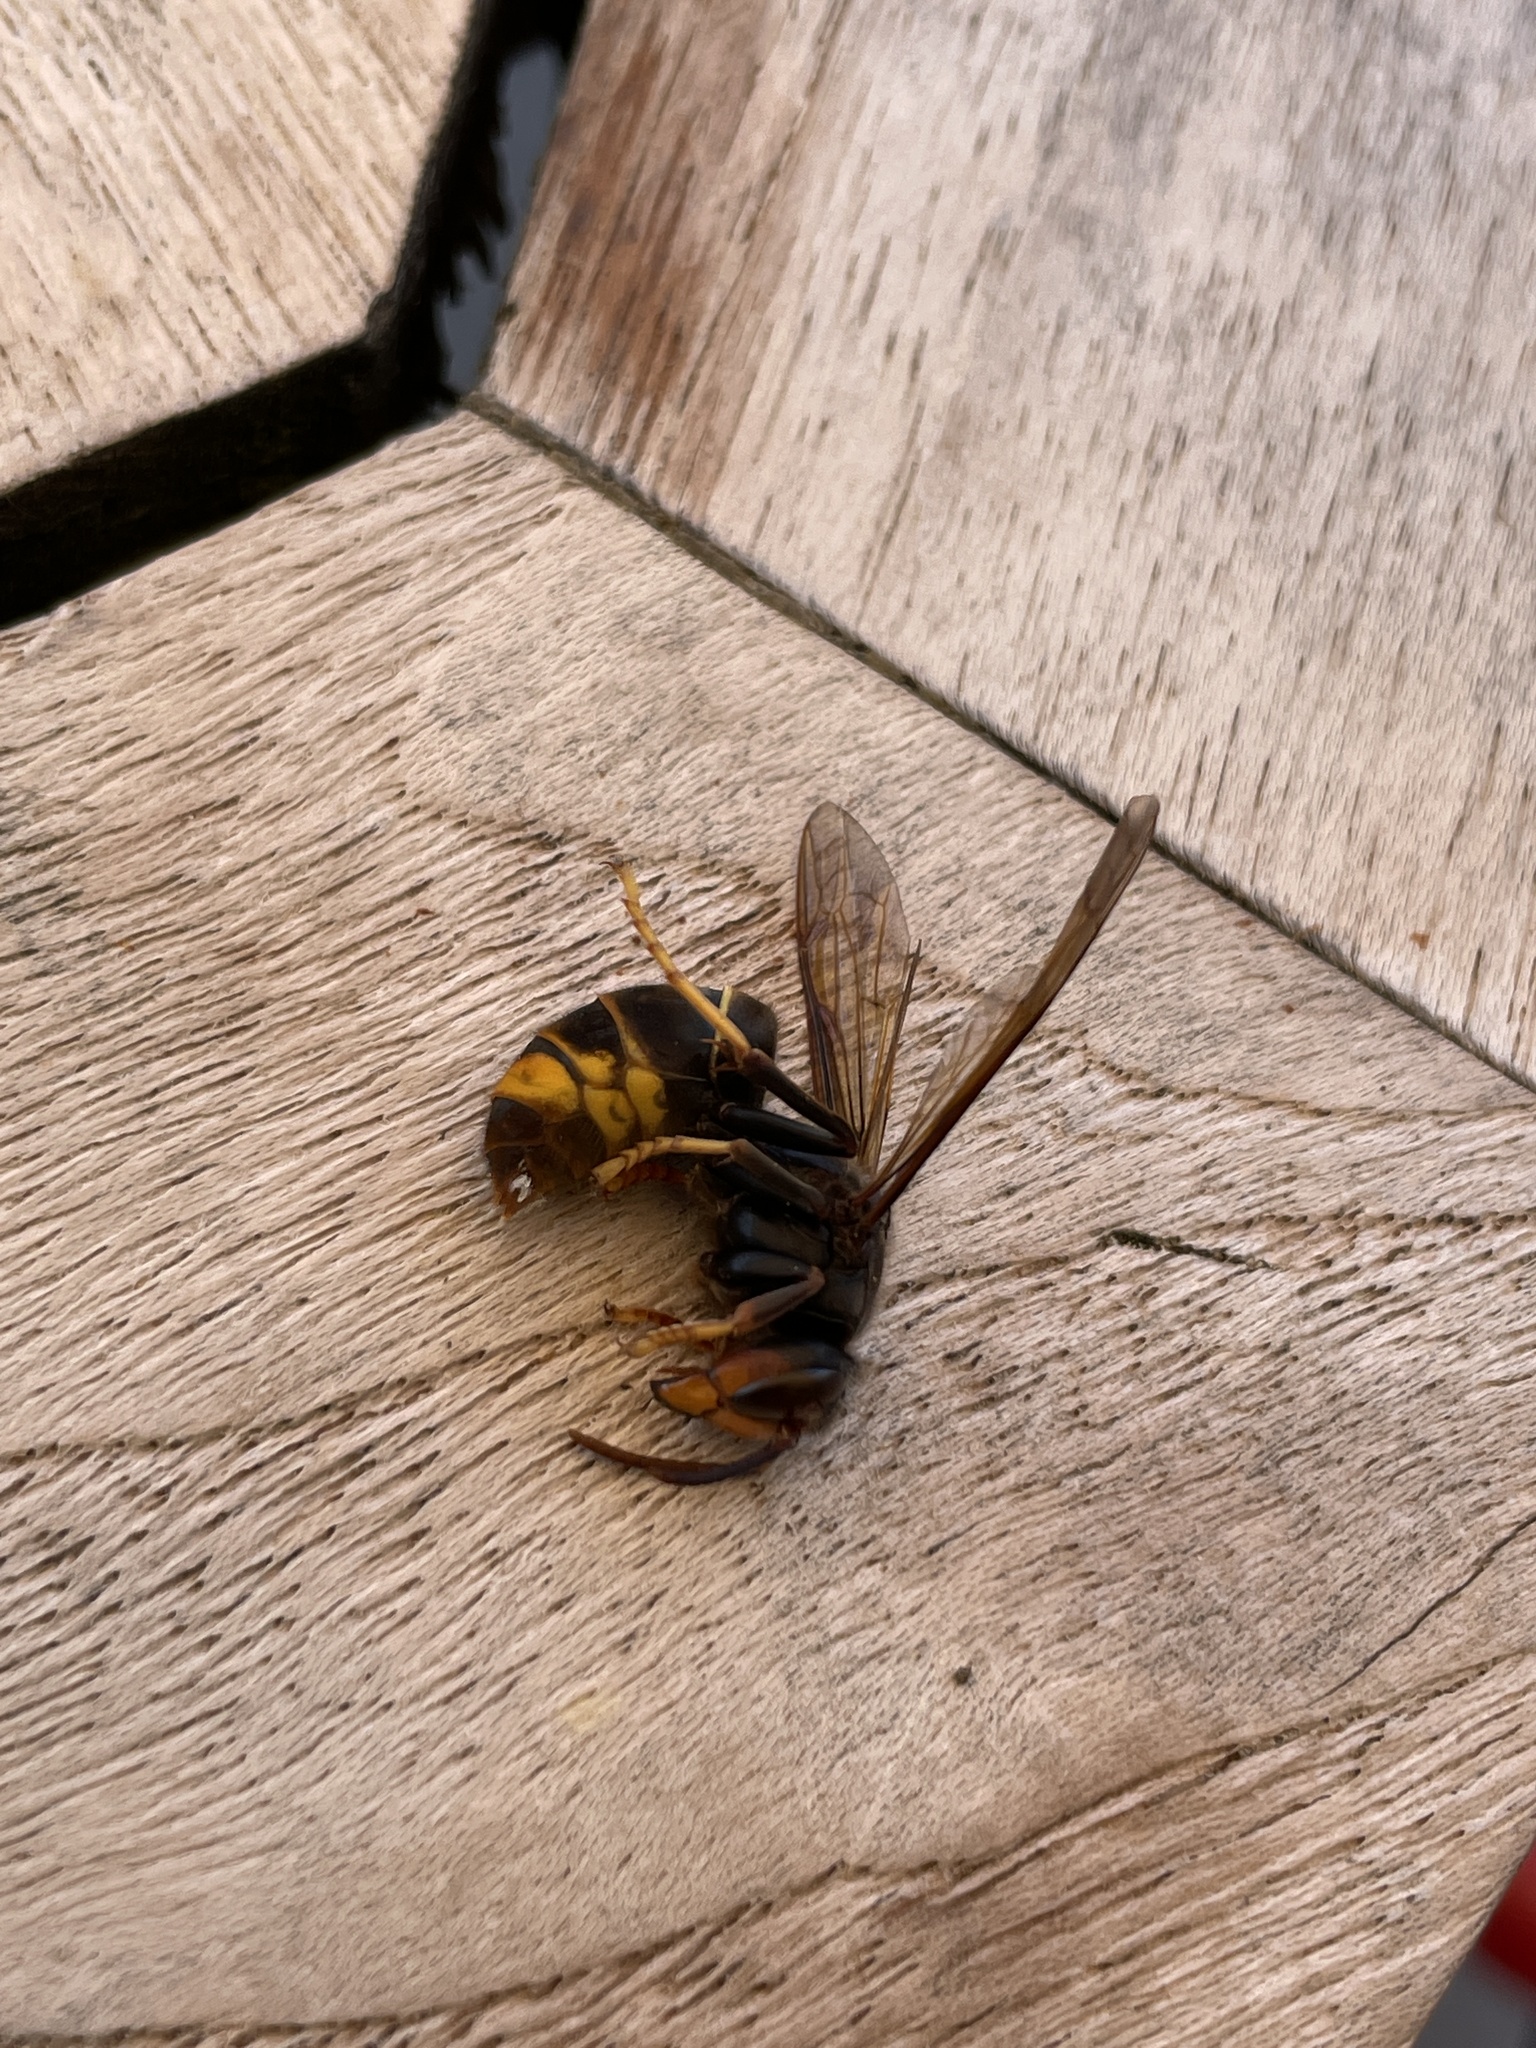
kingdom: Animalia
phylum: Arthropoda
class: Insecta
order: Hymenoptera
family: Vespidae
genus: Vespa
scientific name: Vespa velutina
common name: Asian hornet
